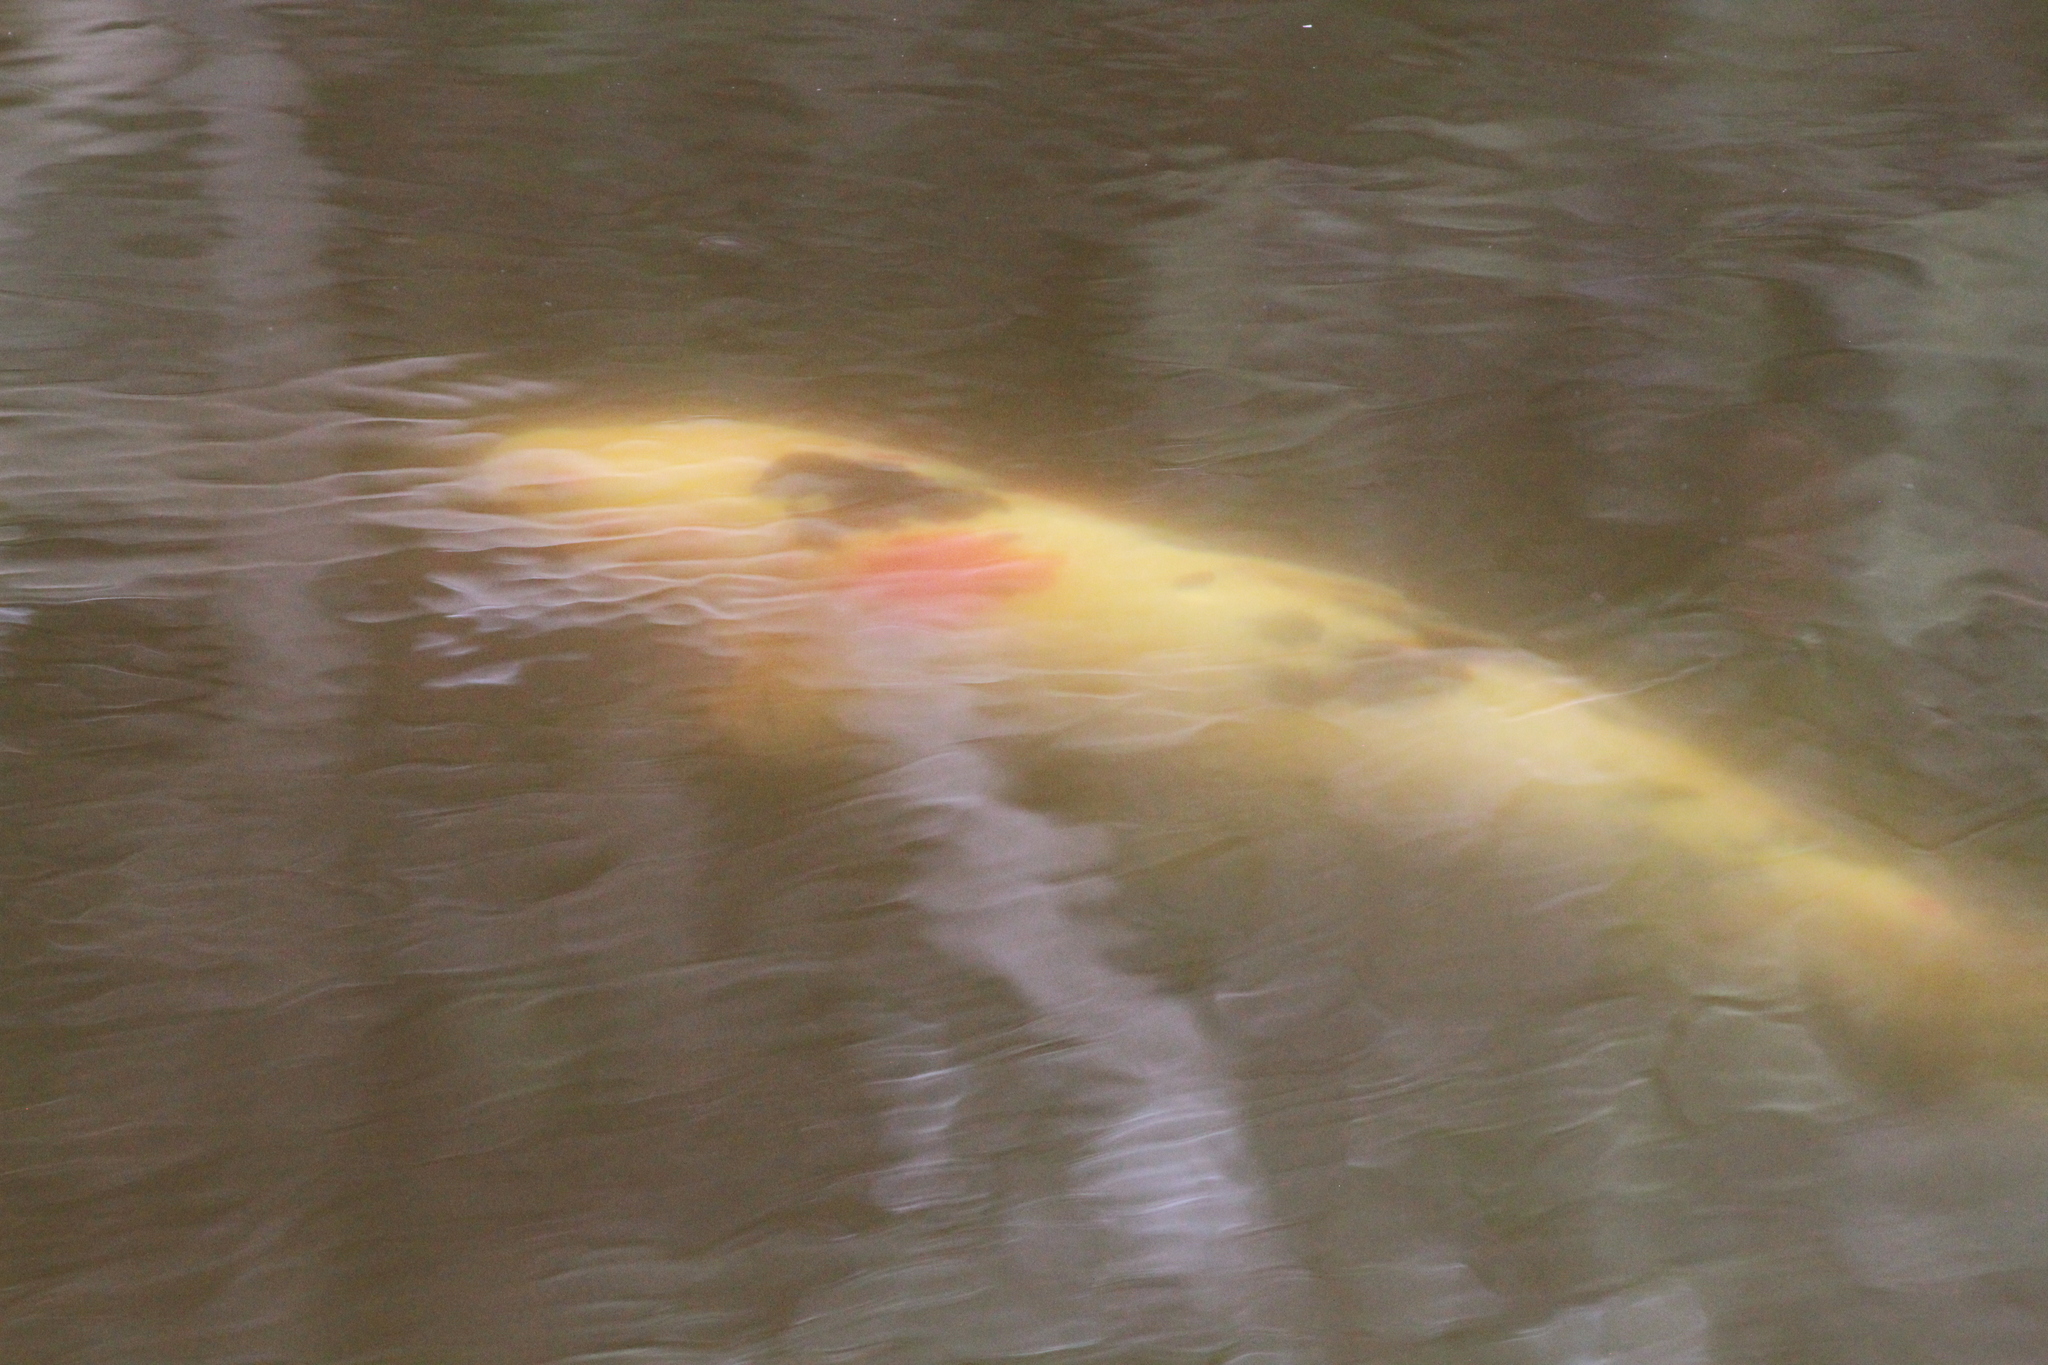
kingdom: Animalia
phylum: Chordata
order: Cypriniformes
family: Cyprinidae
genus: Cyprinus
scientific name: Cyprinus rubrofuscus
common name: Koi
